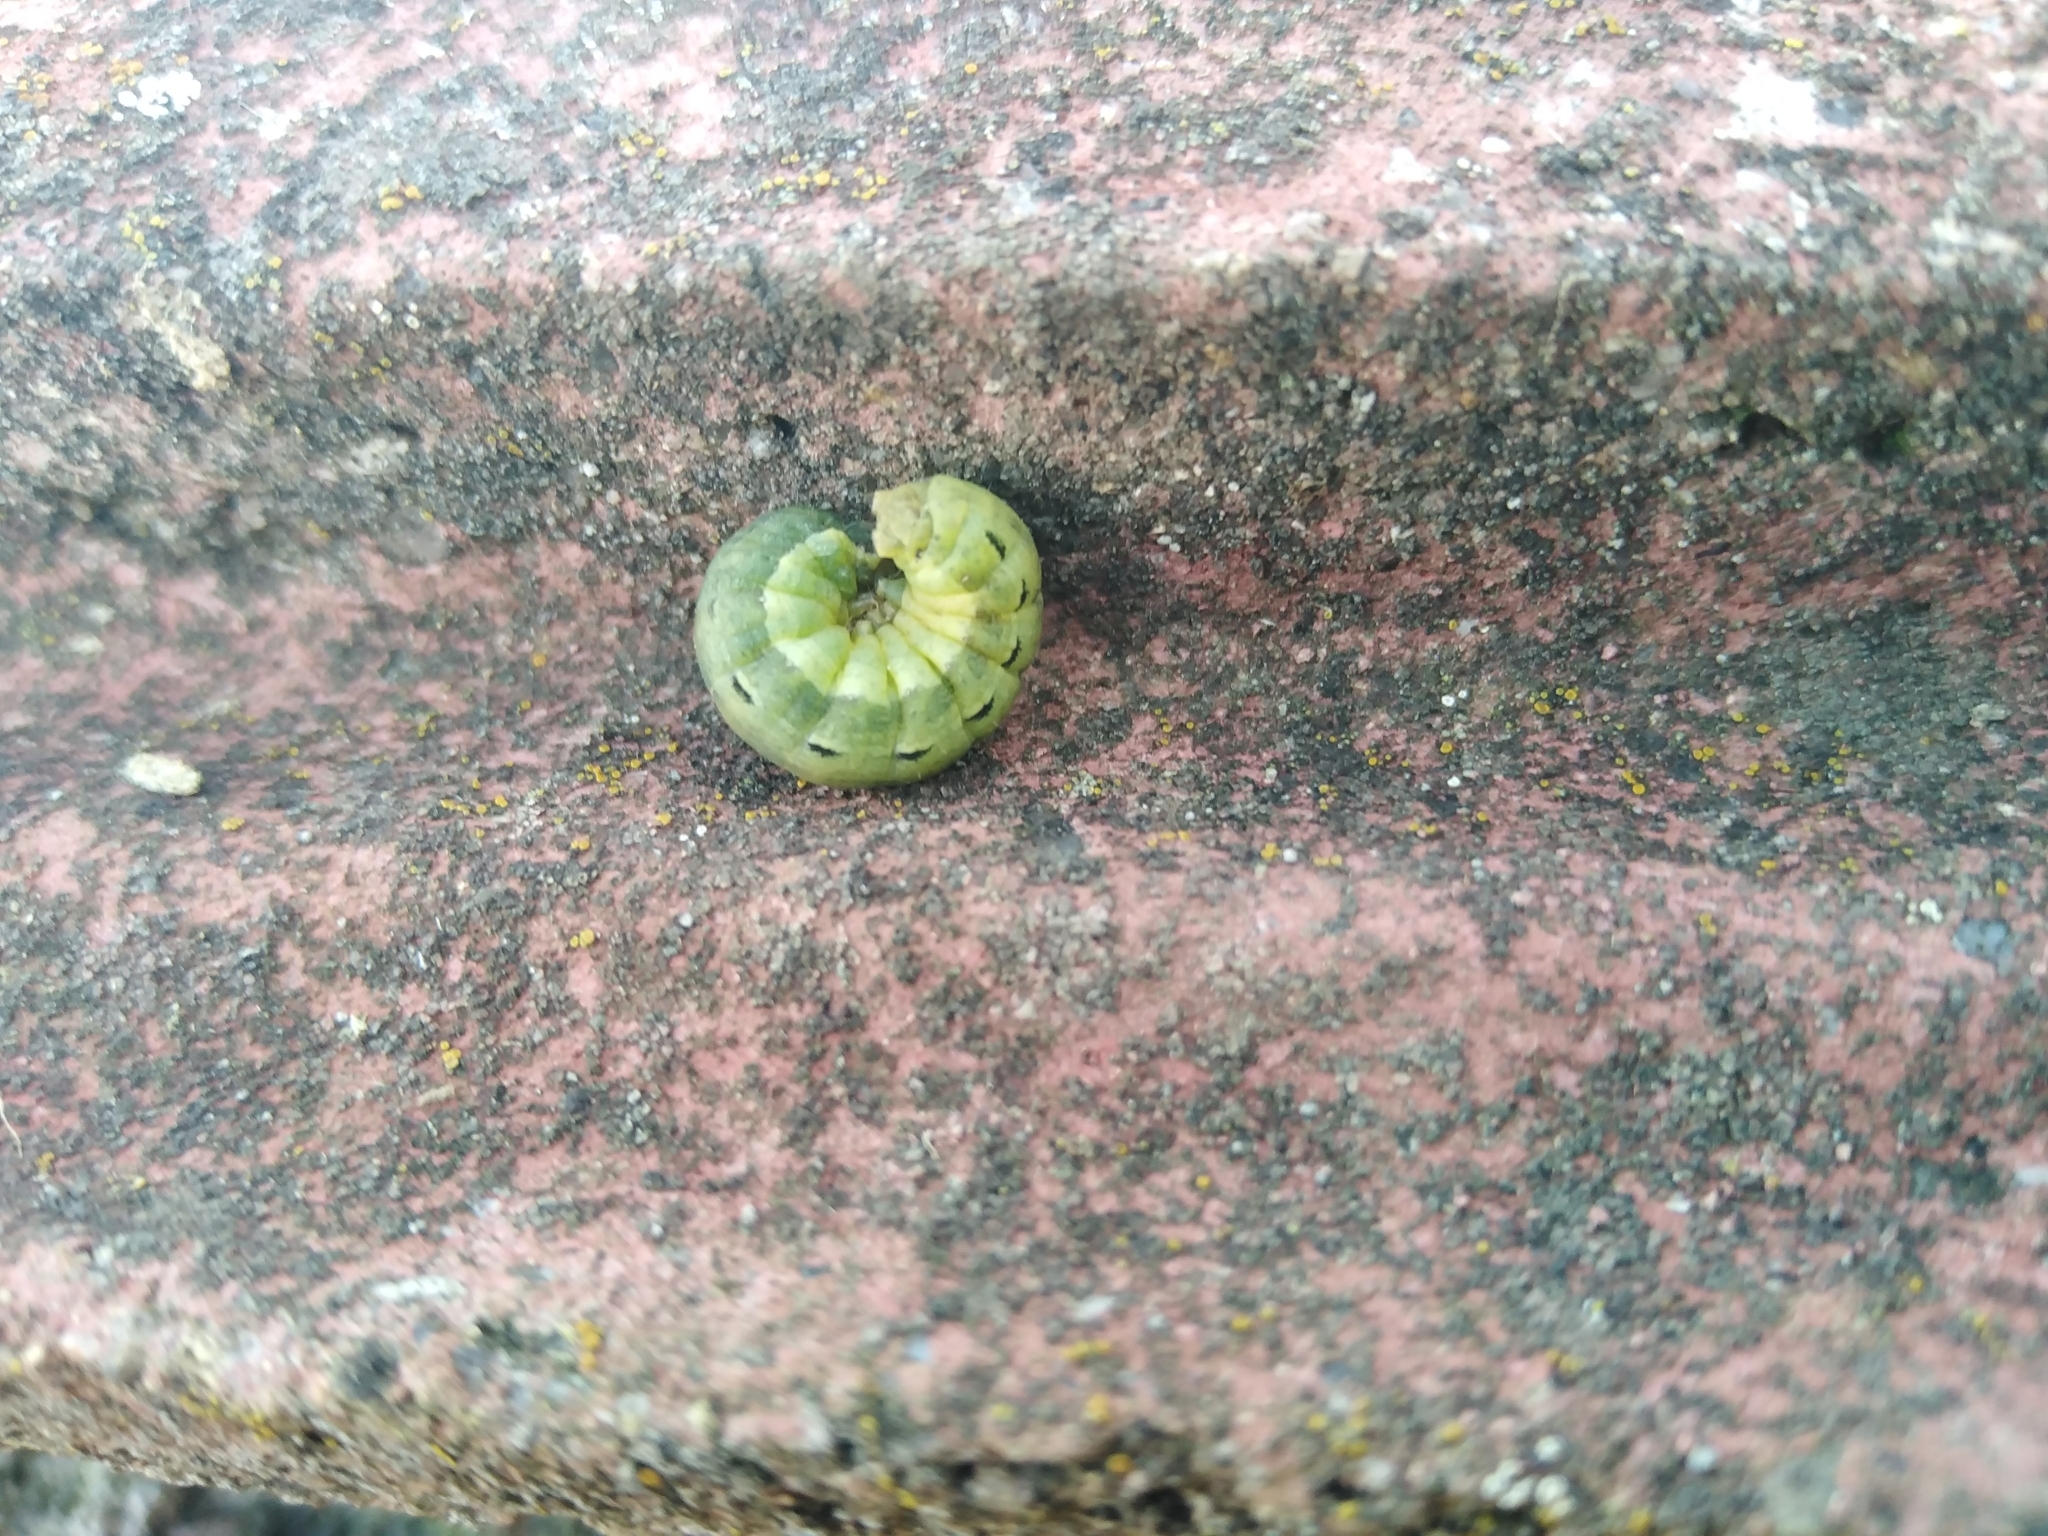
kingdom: Animalia
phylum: Arthropoda
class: Insecta
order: Lepidoptera
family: Noctuidae
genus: Noctua
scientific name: Noctua pronuba
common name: Large yellow underwing
